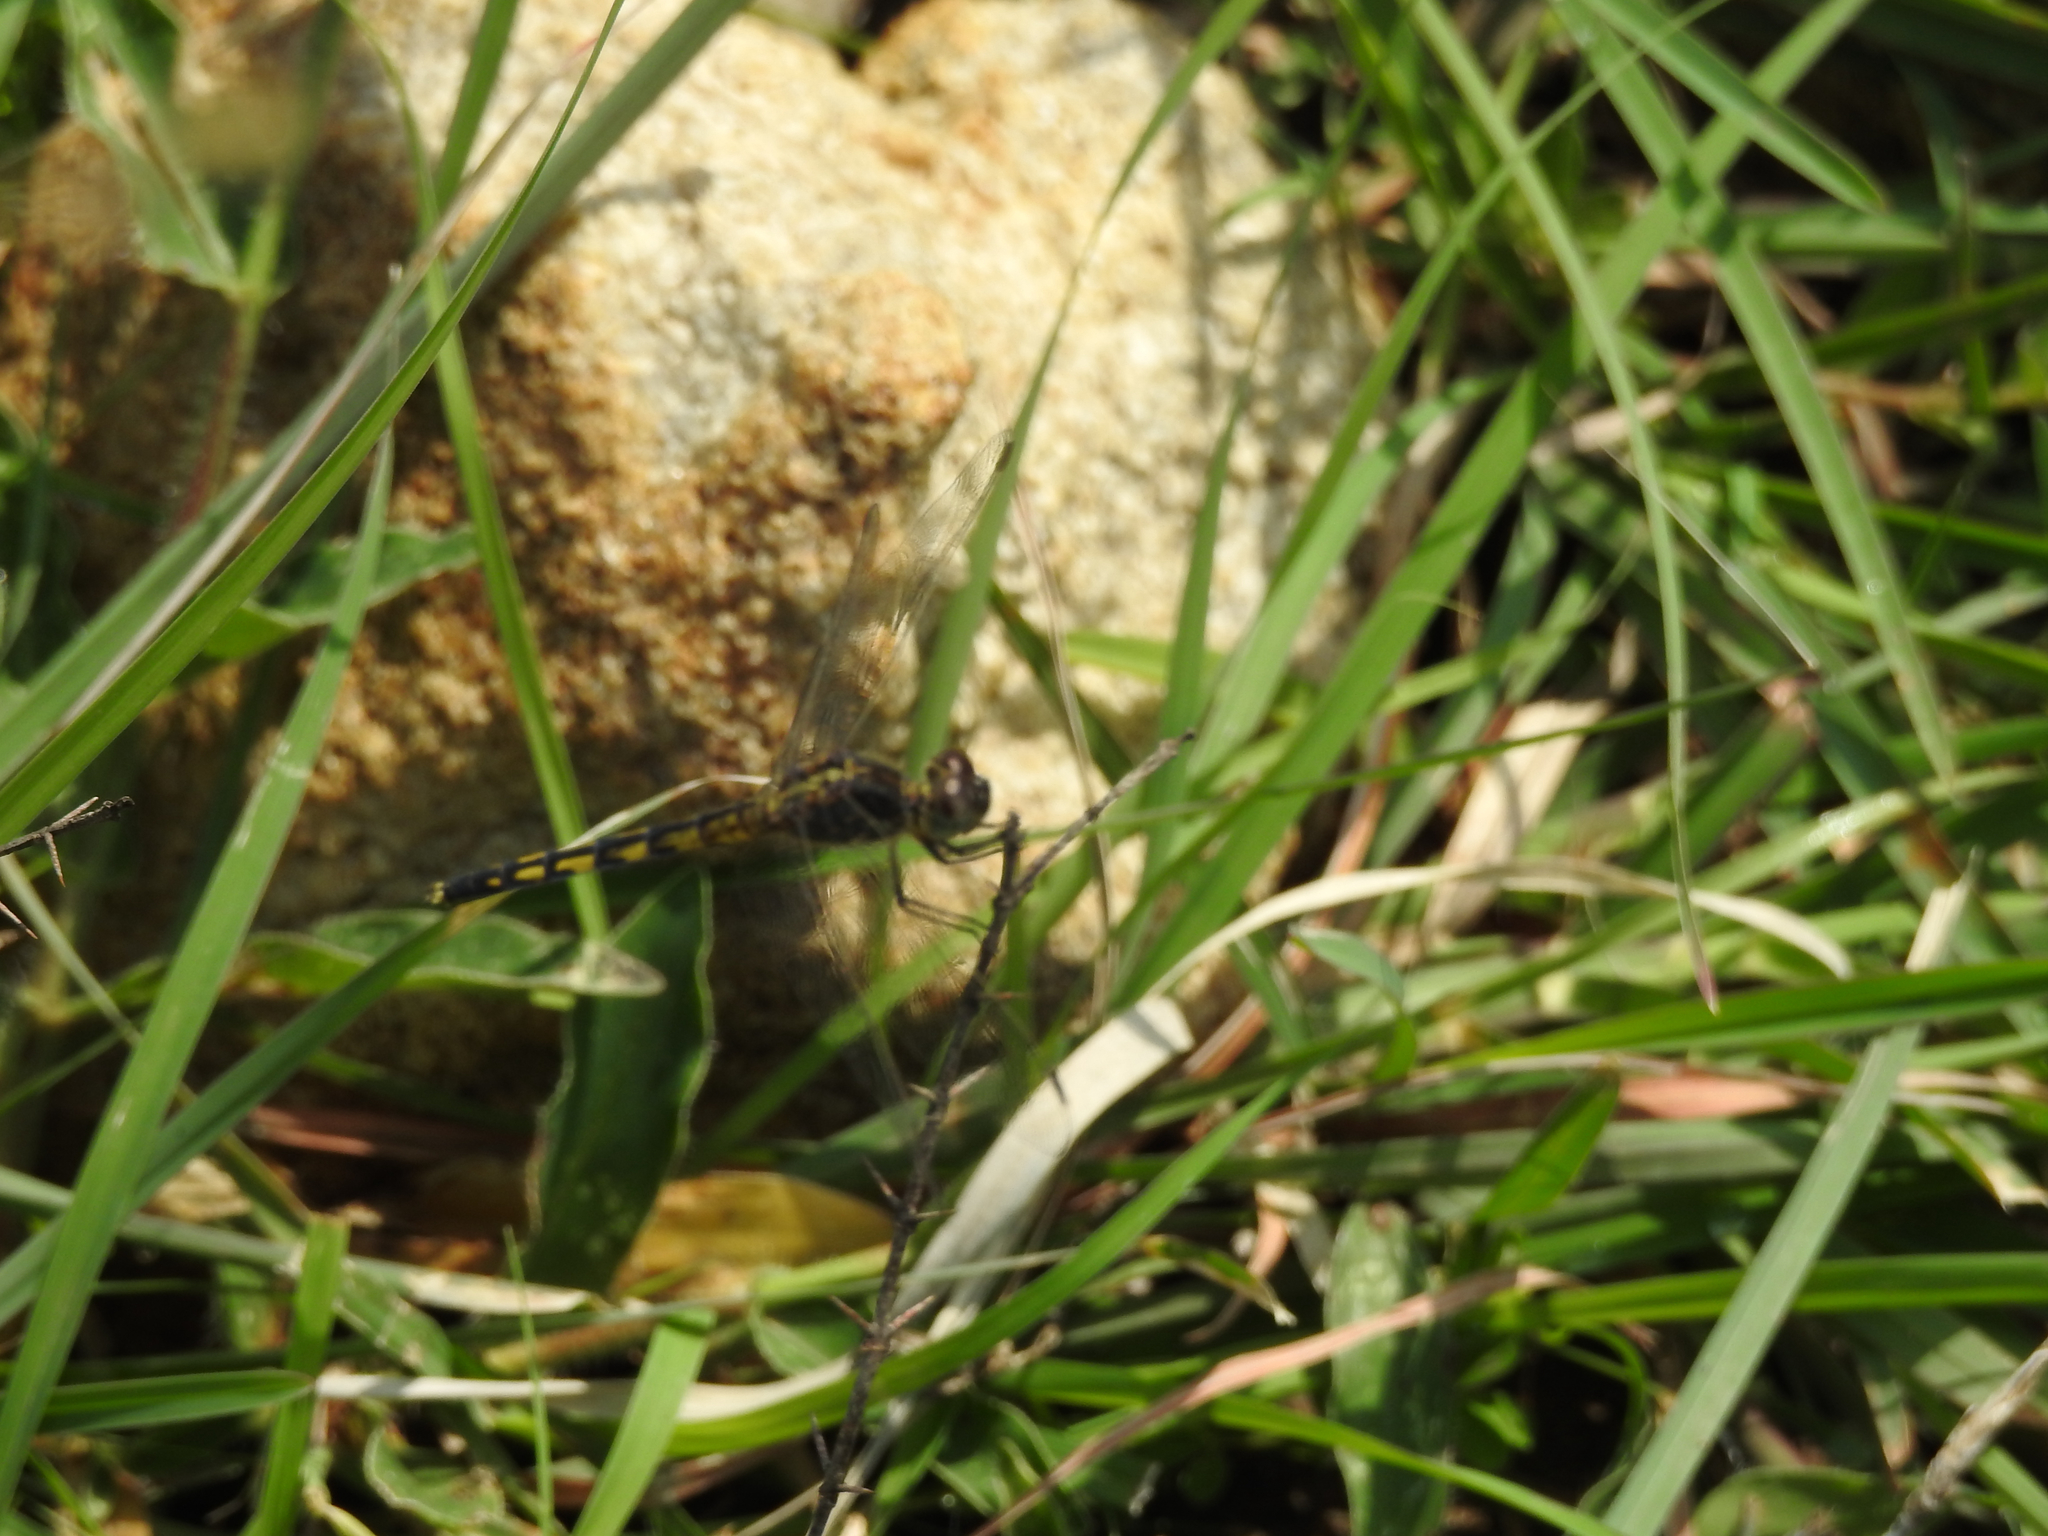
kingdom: Animalia
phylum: Arthropoda
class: Insecta
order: Odonata
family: Libellulidae
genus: Indothemis
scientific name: Indothemis carnatica
